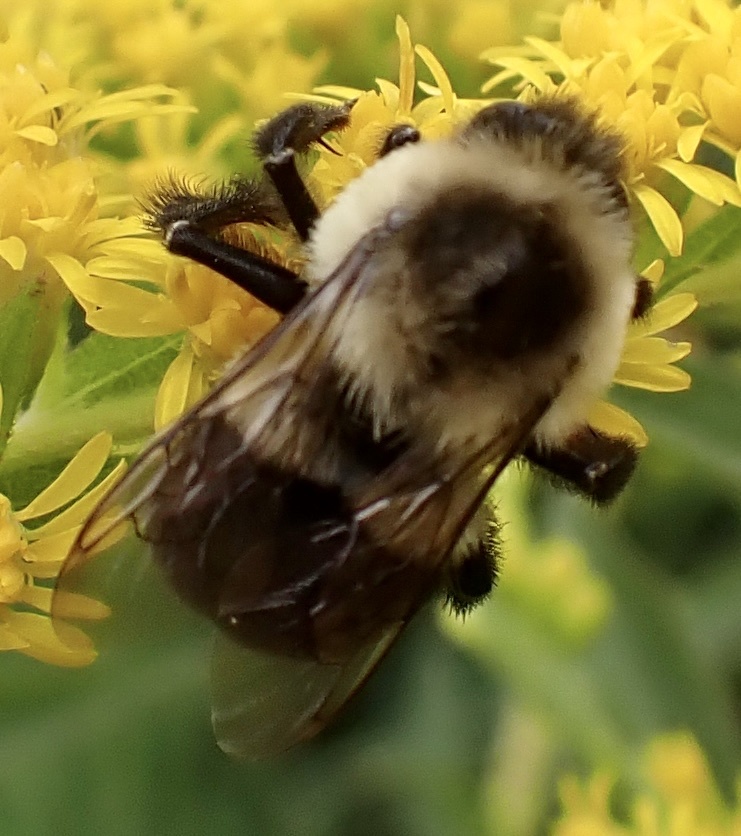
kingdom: Animalia
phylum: Arthropoda
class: Insecta
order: Hymenoptera
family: Apidae
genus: Bombus
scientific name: Bombus impatiens
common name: Common eastern bumble bee
